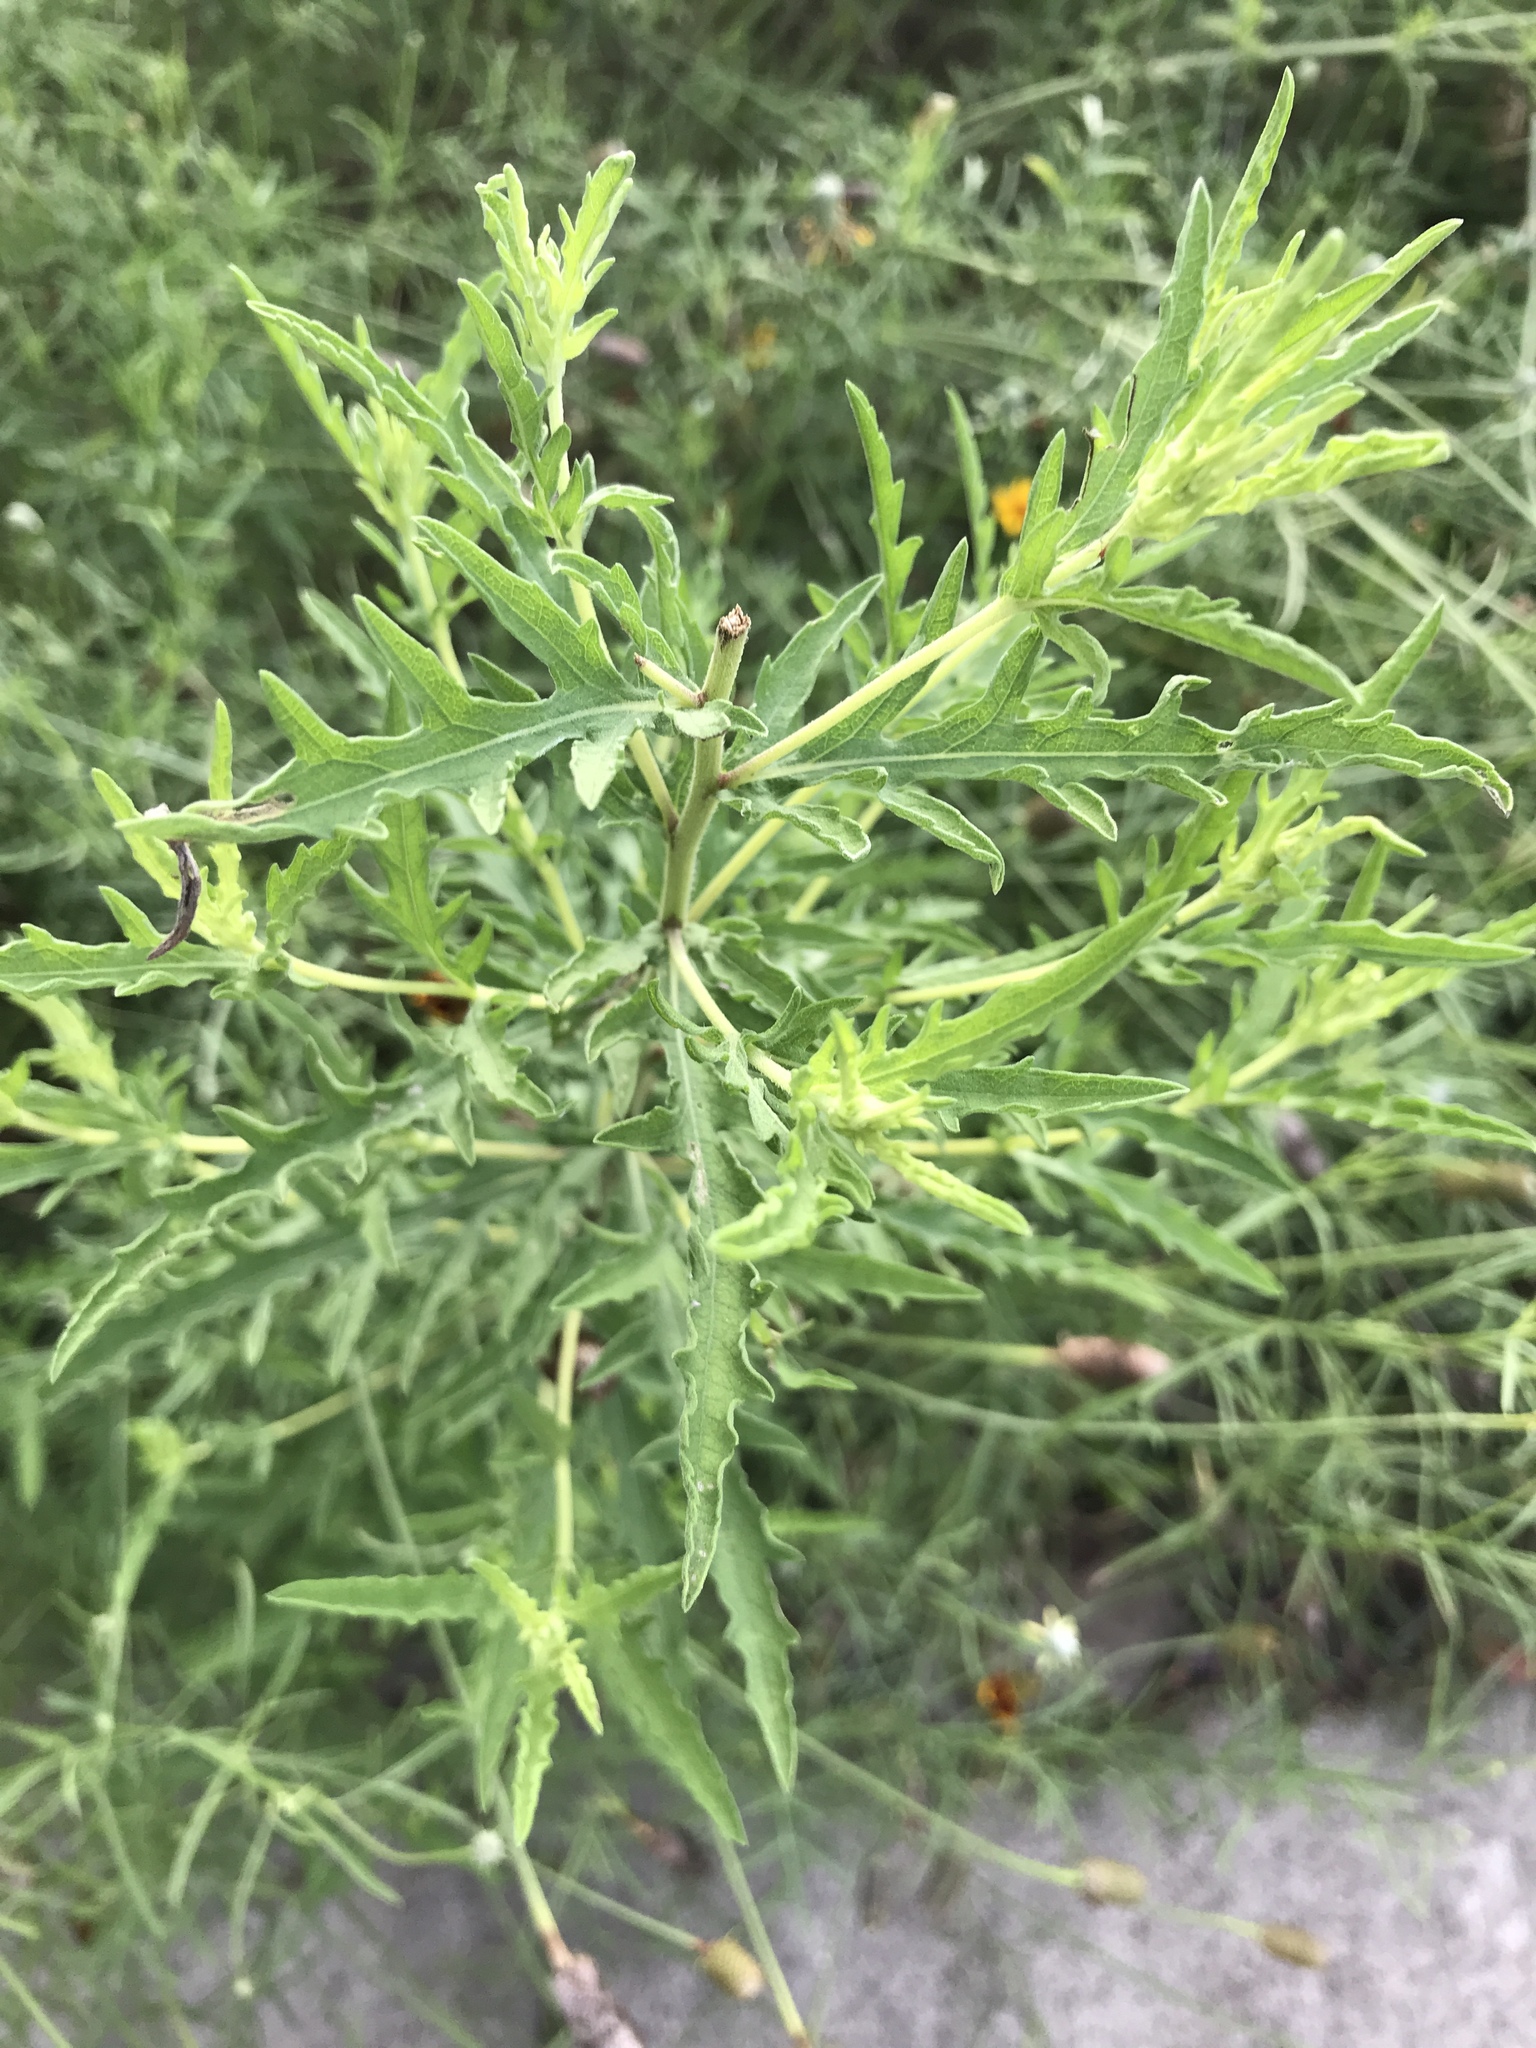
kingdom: Plantae
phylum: Tracheophyta
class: Magnoliopsida
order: Asterales
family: Asteraceae
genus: Ambrosia
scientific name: Ambrosia psilostachya
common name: Perennial ragweed
